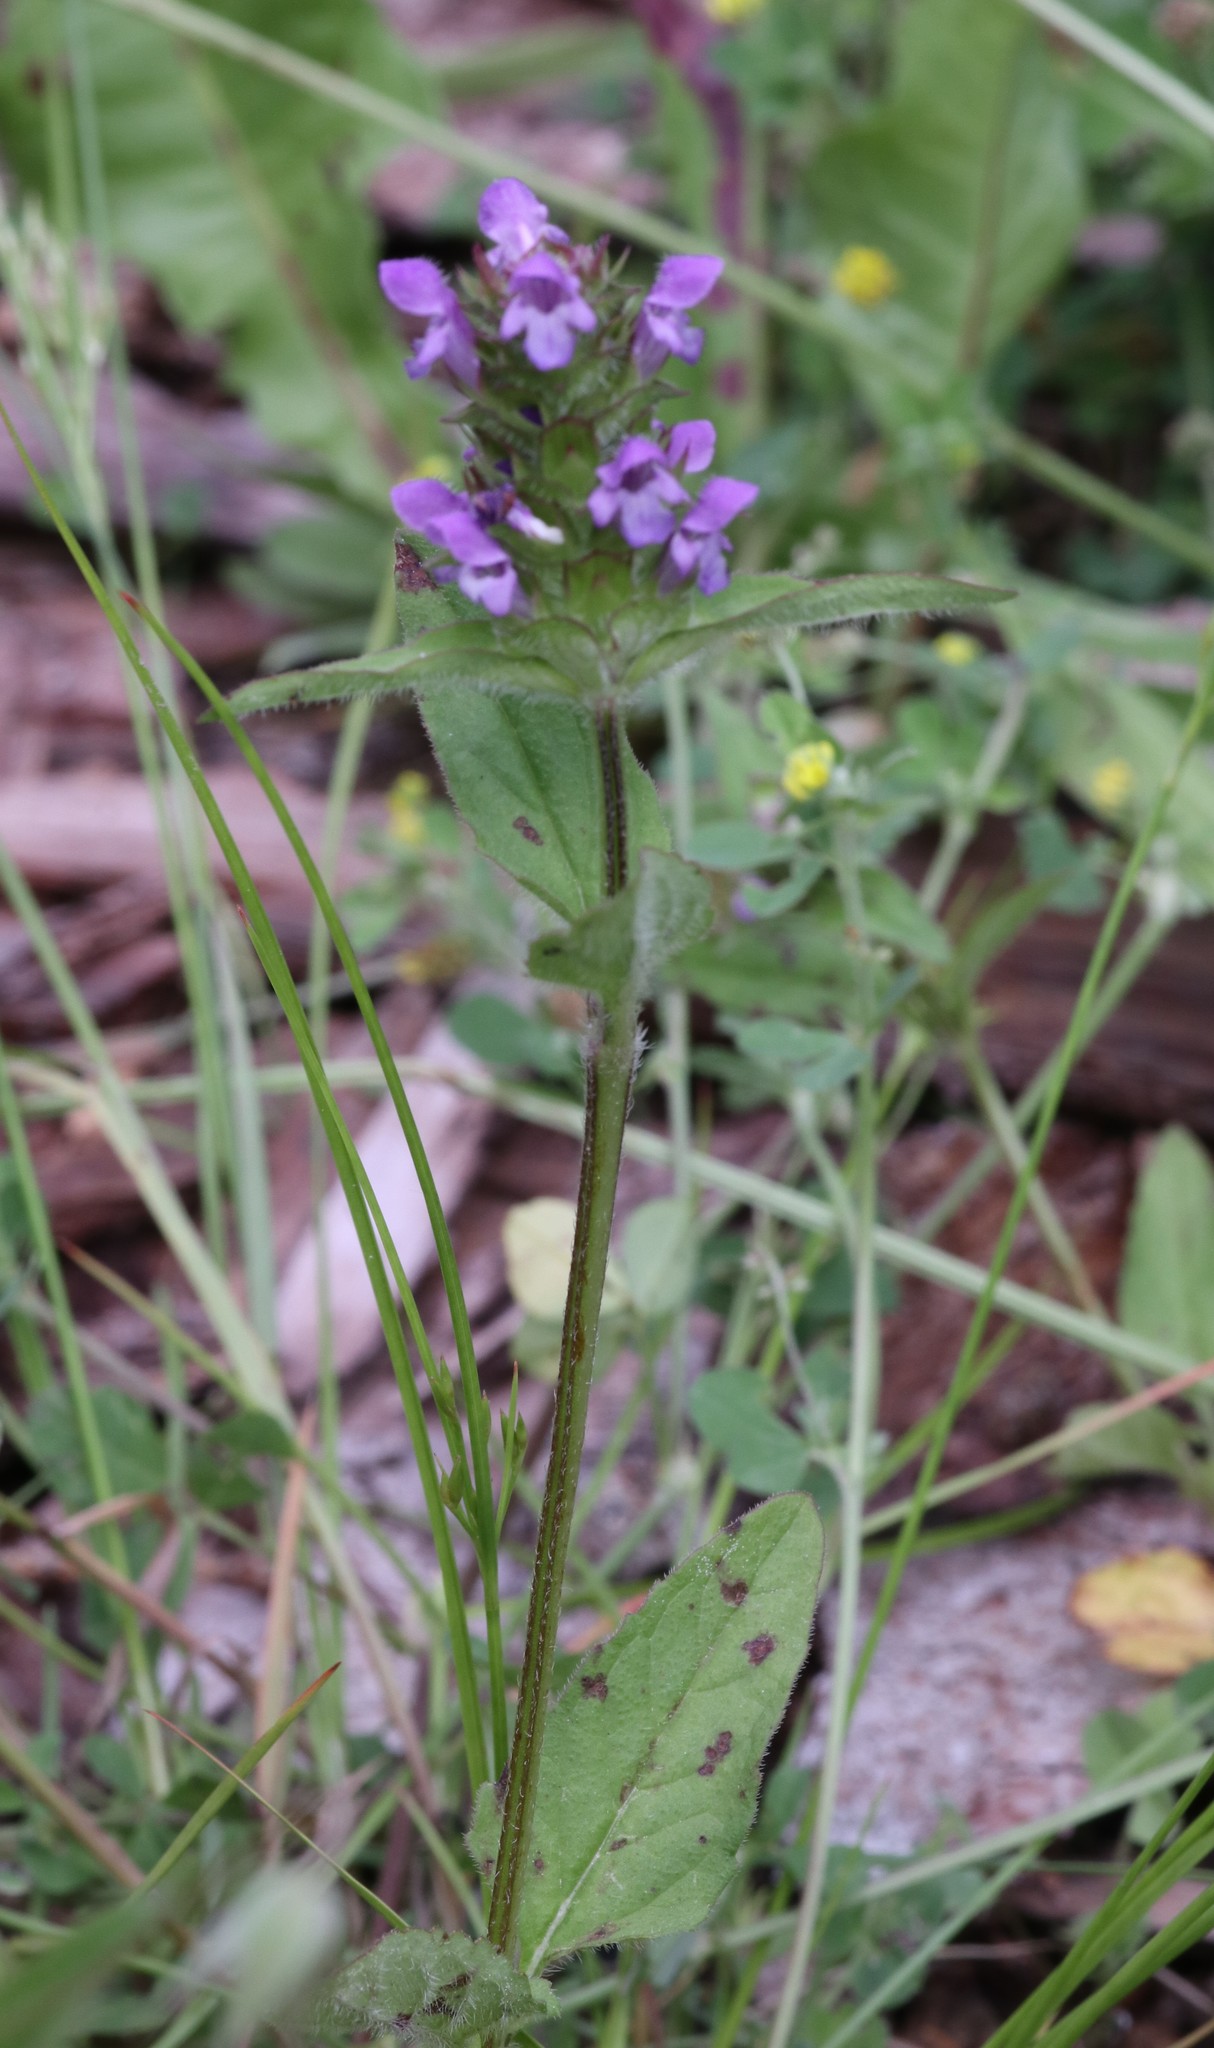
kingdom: Plantae
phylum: Tracheophyta
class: Magnoliopsida
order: Lamiales
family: Lamiaceae
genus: Prunella
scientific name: Prunella vulgaris
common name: Heal-all
